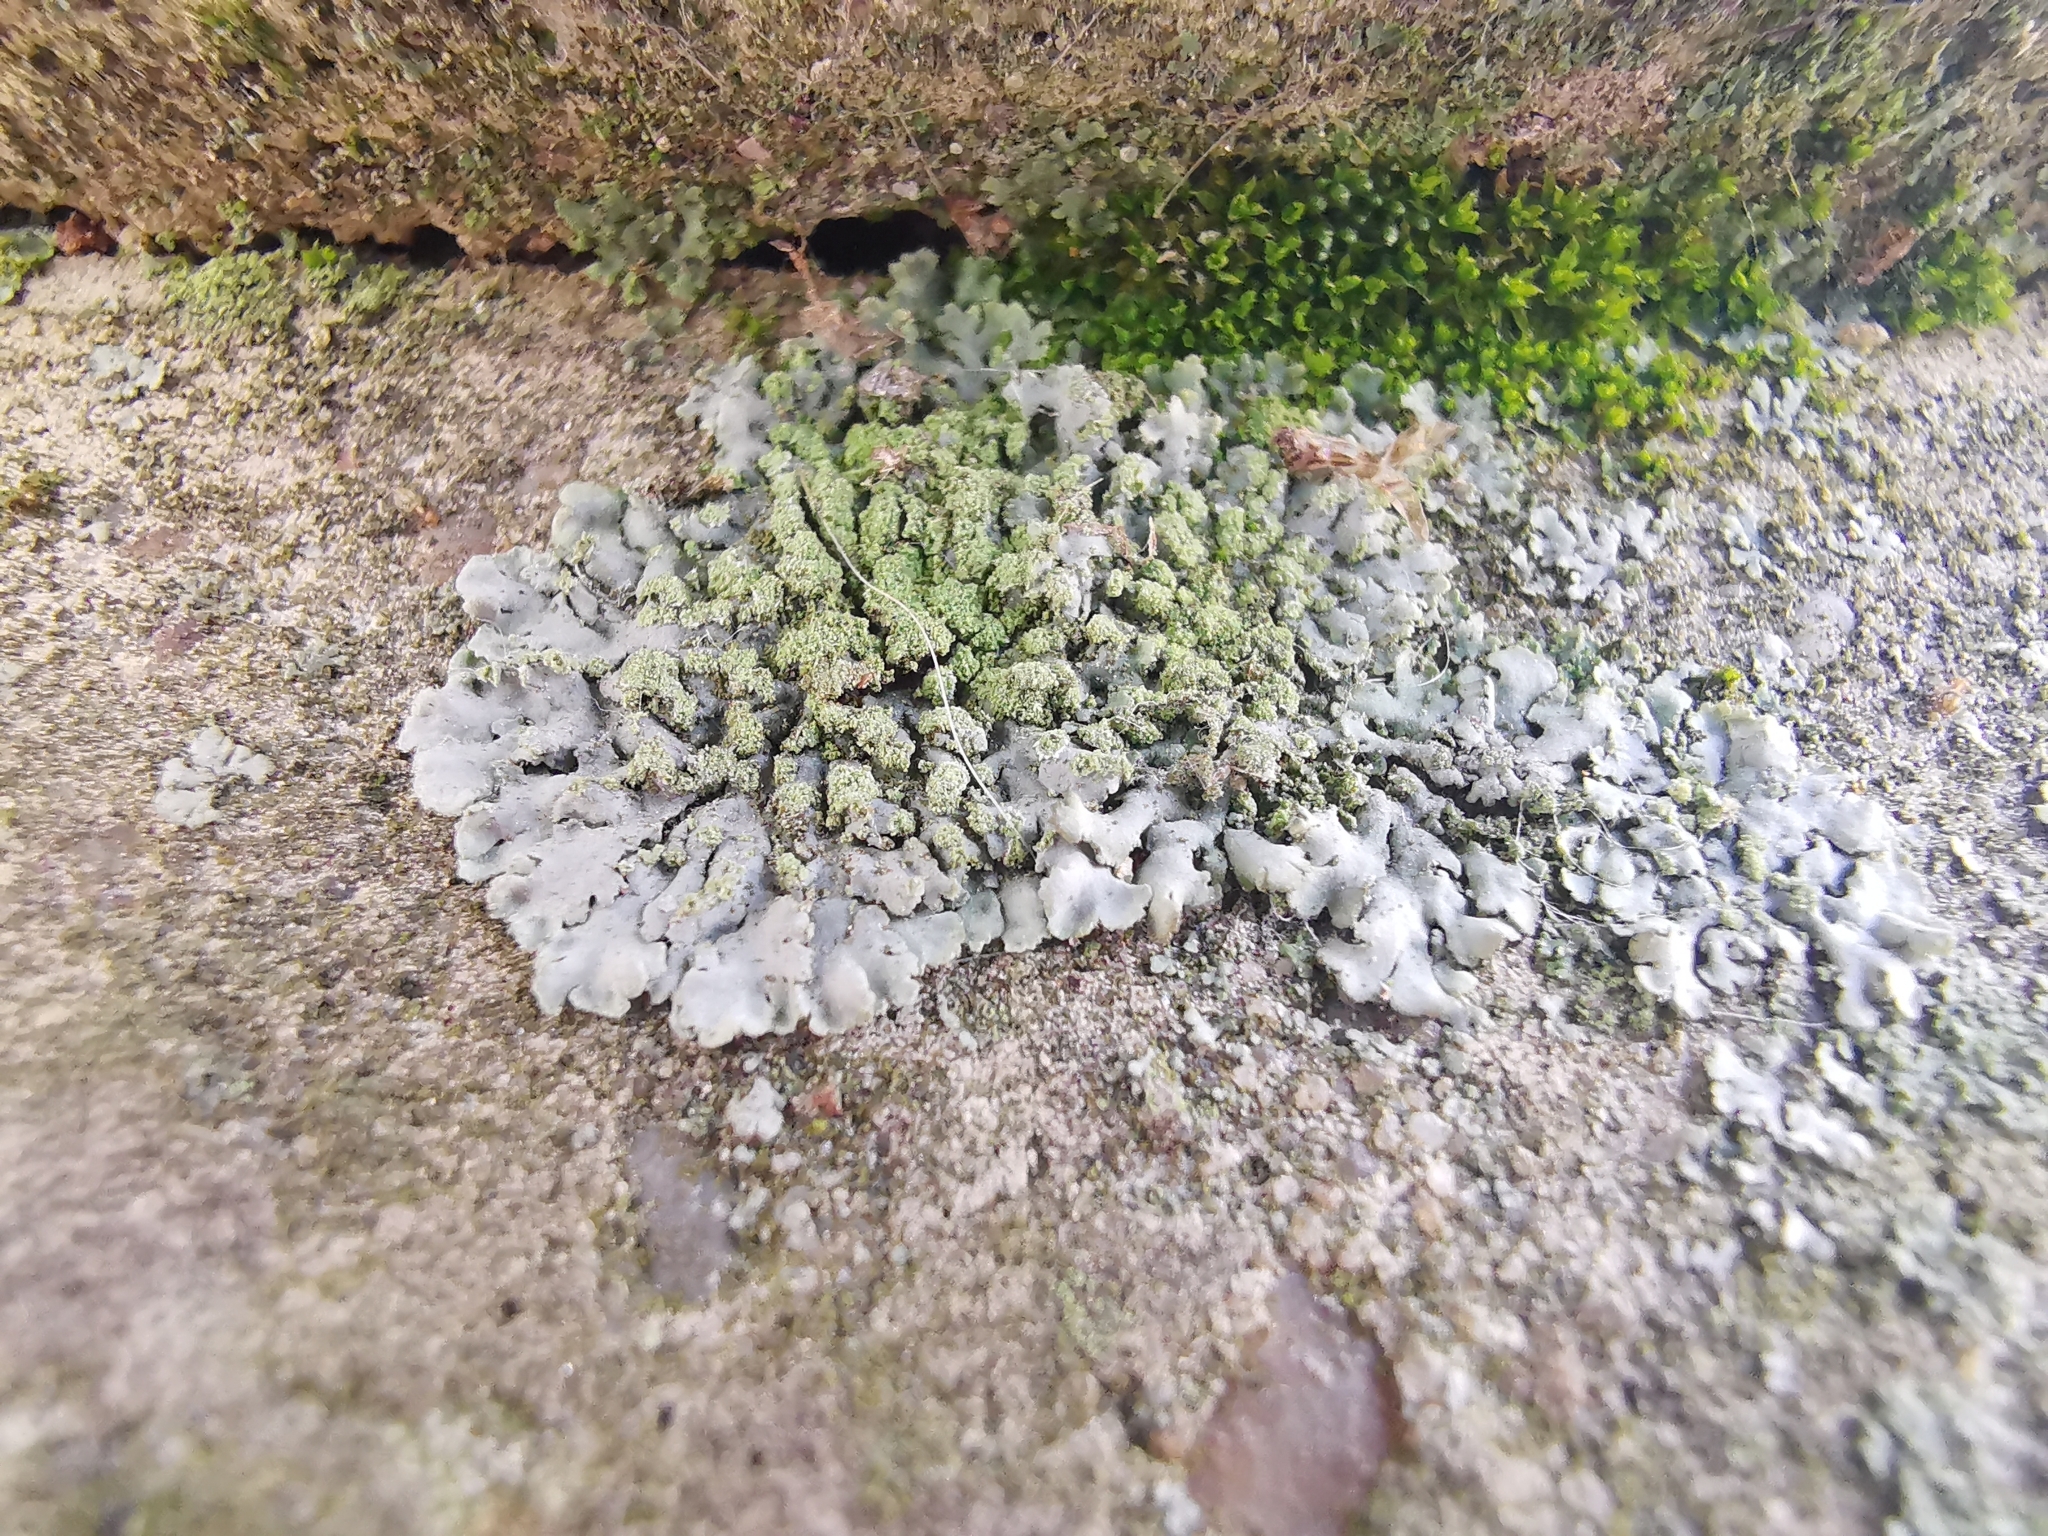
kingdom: Fungi
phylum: Ascomycota
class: Lecanoromycetes
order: Caliciales
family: Physciaceae
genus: Phaeophyscia
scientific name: Phaeophyscia orbicularis
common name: Mealy shadow lichen
